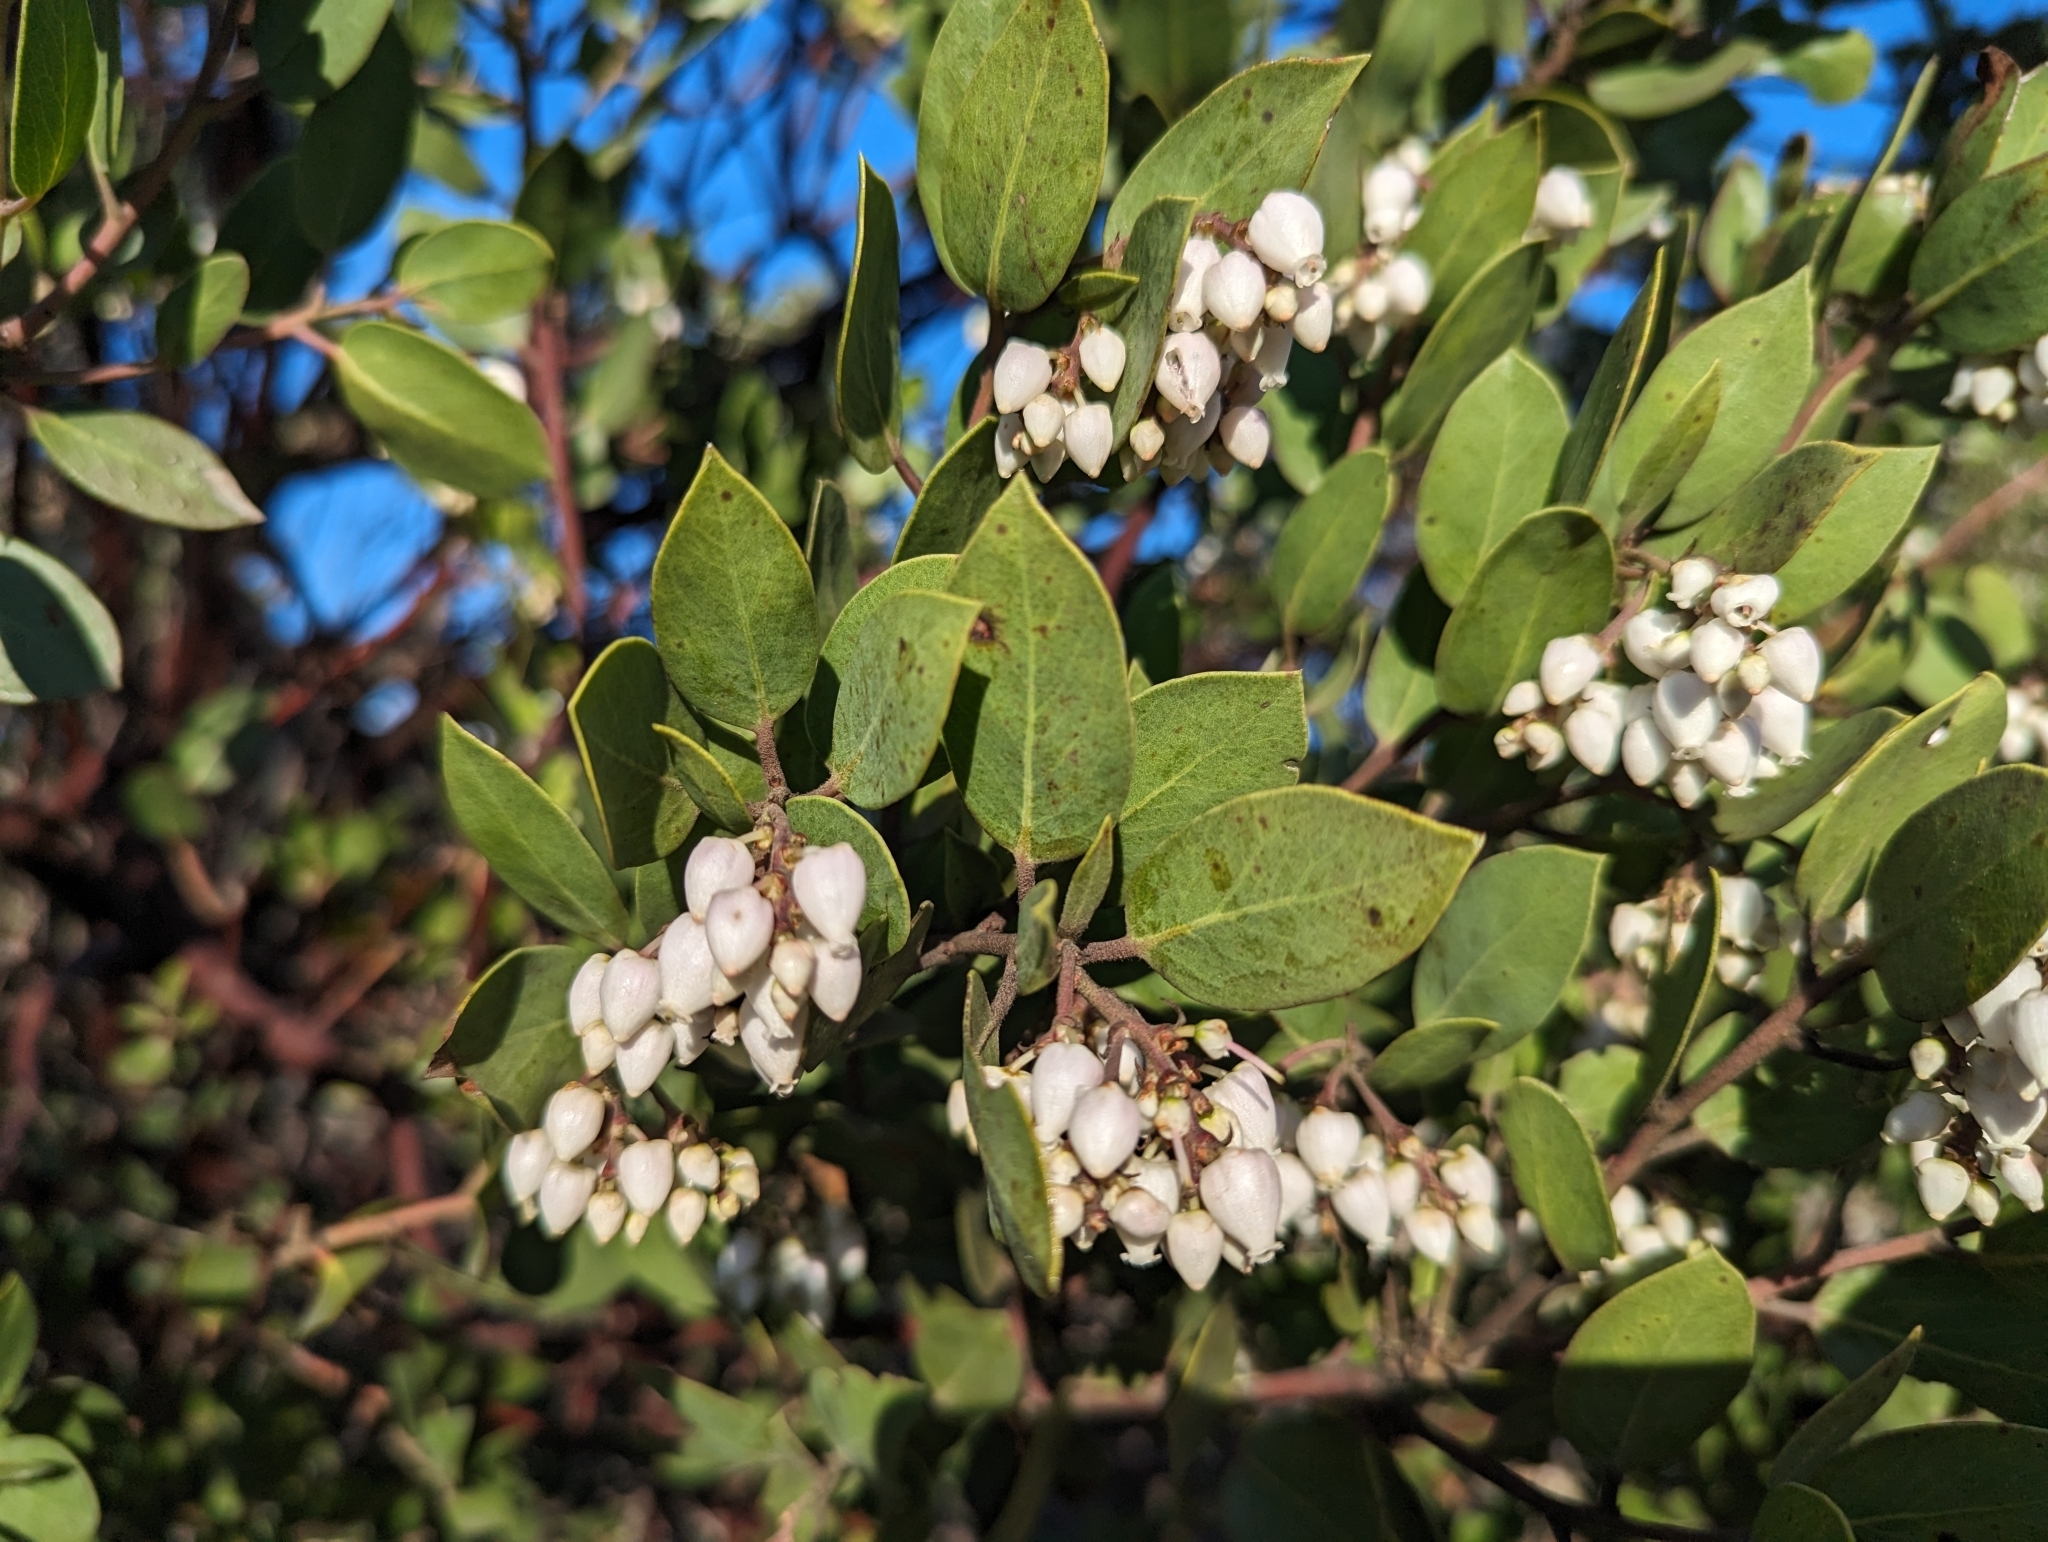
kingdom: Plantae
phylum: Tracheophyta
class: Magnoliopsida
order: Ericales
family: Ericaceae
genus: Arctostaphylos
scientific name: Arctostaphylos manzanita
